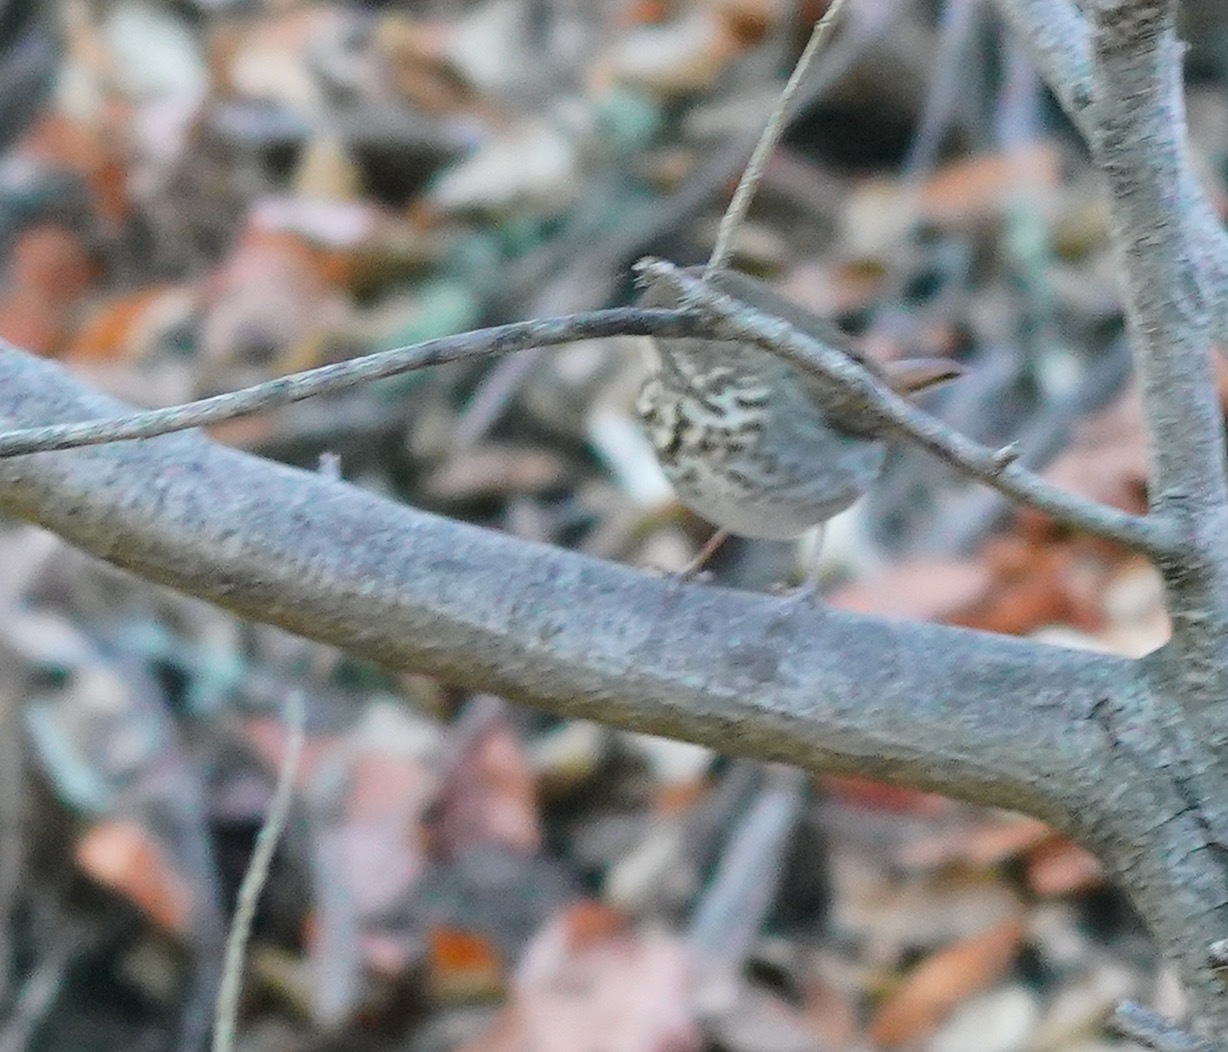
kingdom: Animalia
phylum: Chordata
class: Aves
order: Passeriformes
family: Turdidae
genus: Catharus
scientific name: Catharus guttatus
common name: Hermit thrush
